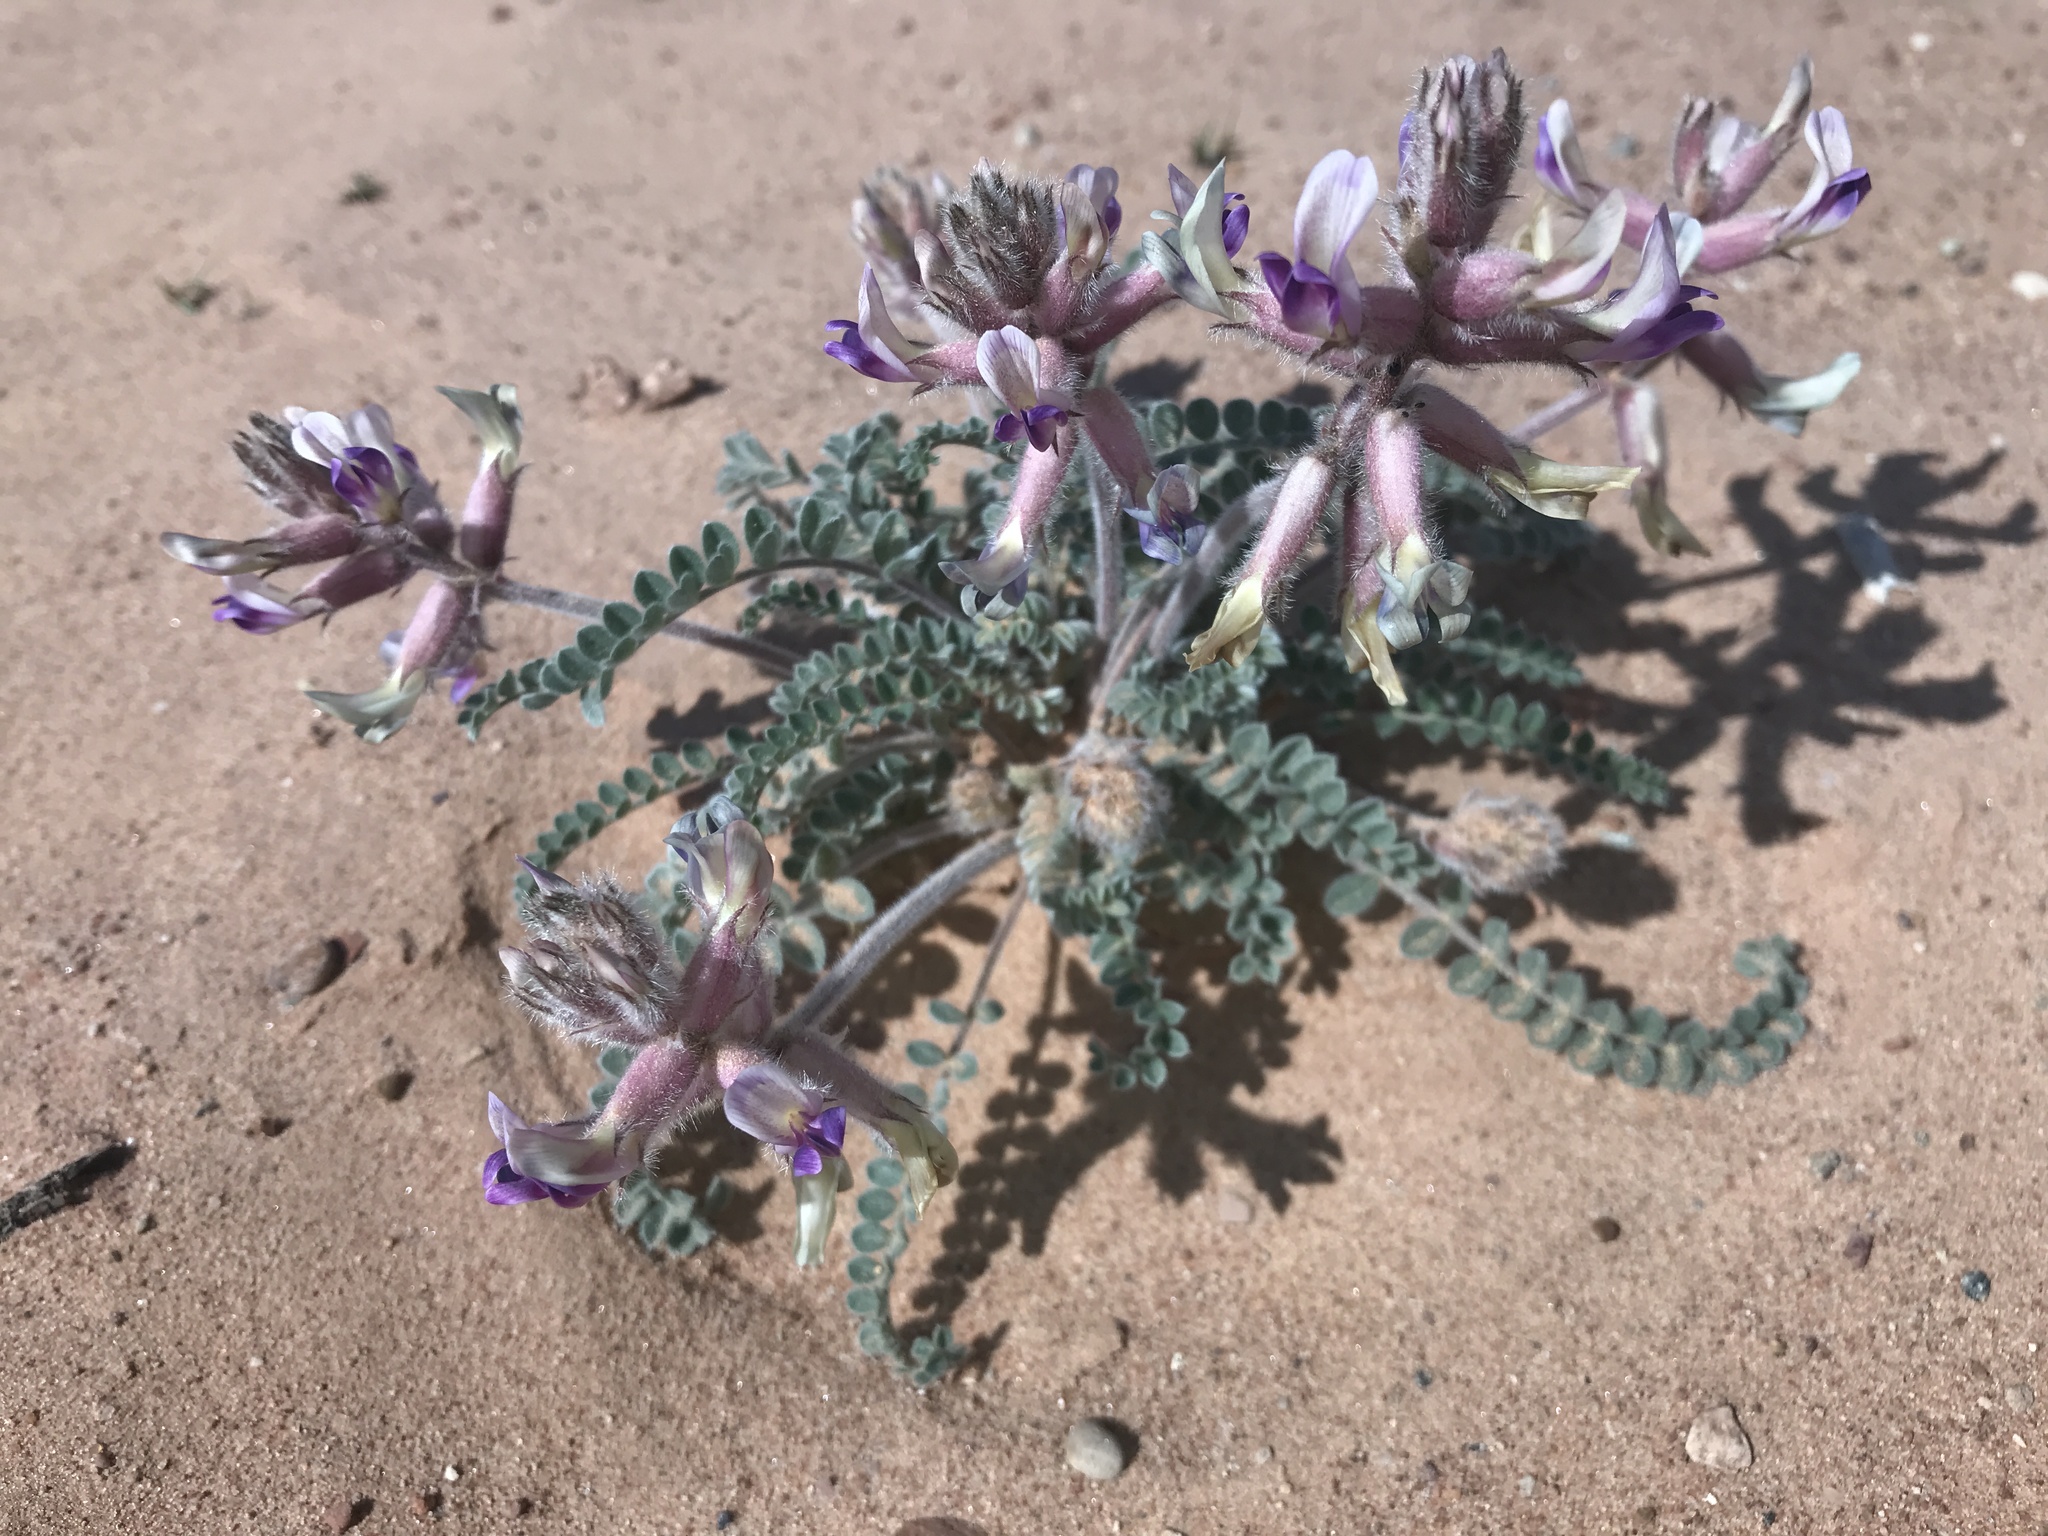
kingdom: Plantae
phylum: Tracheophyta
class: Magnoliopsida
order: Fabales
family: Fabaceae
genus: Astragalus
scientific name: Astragalus mollissimus
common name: Woolly locoweed
